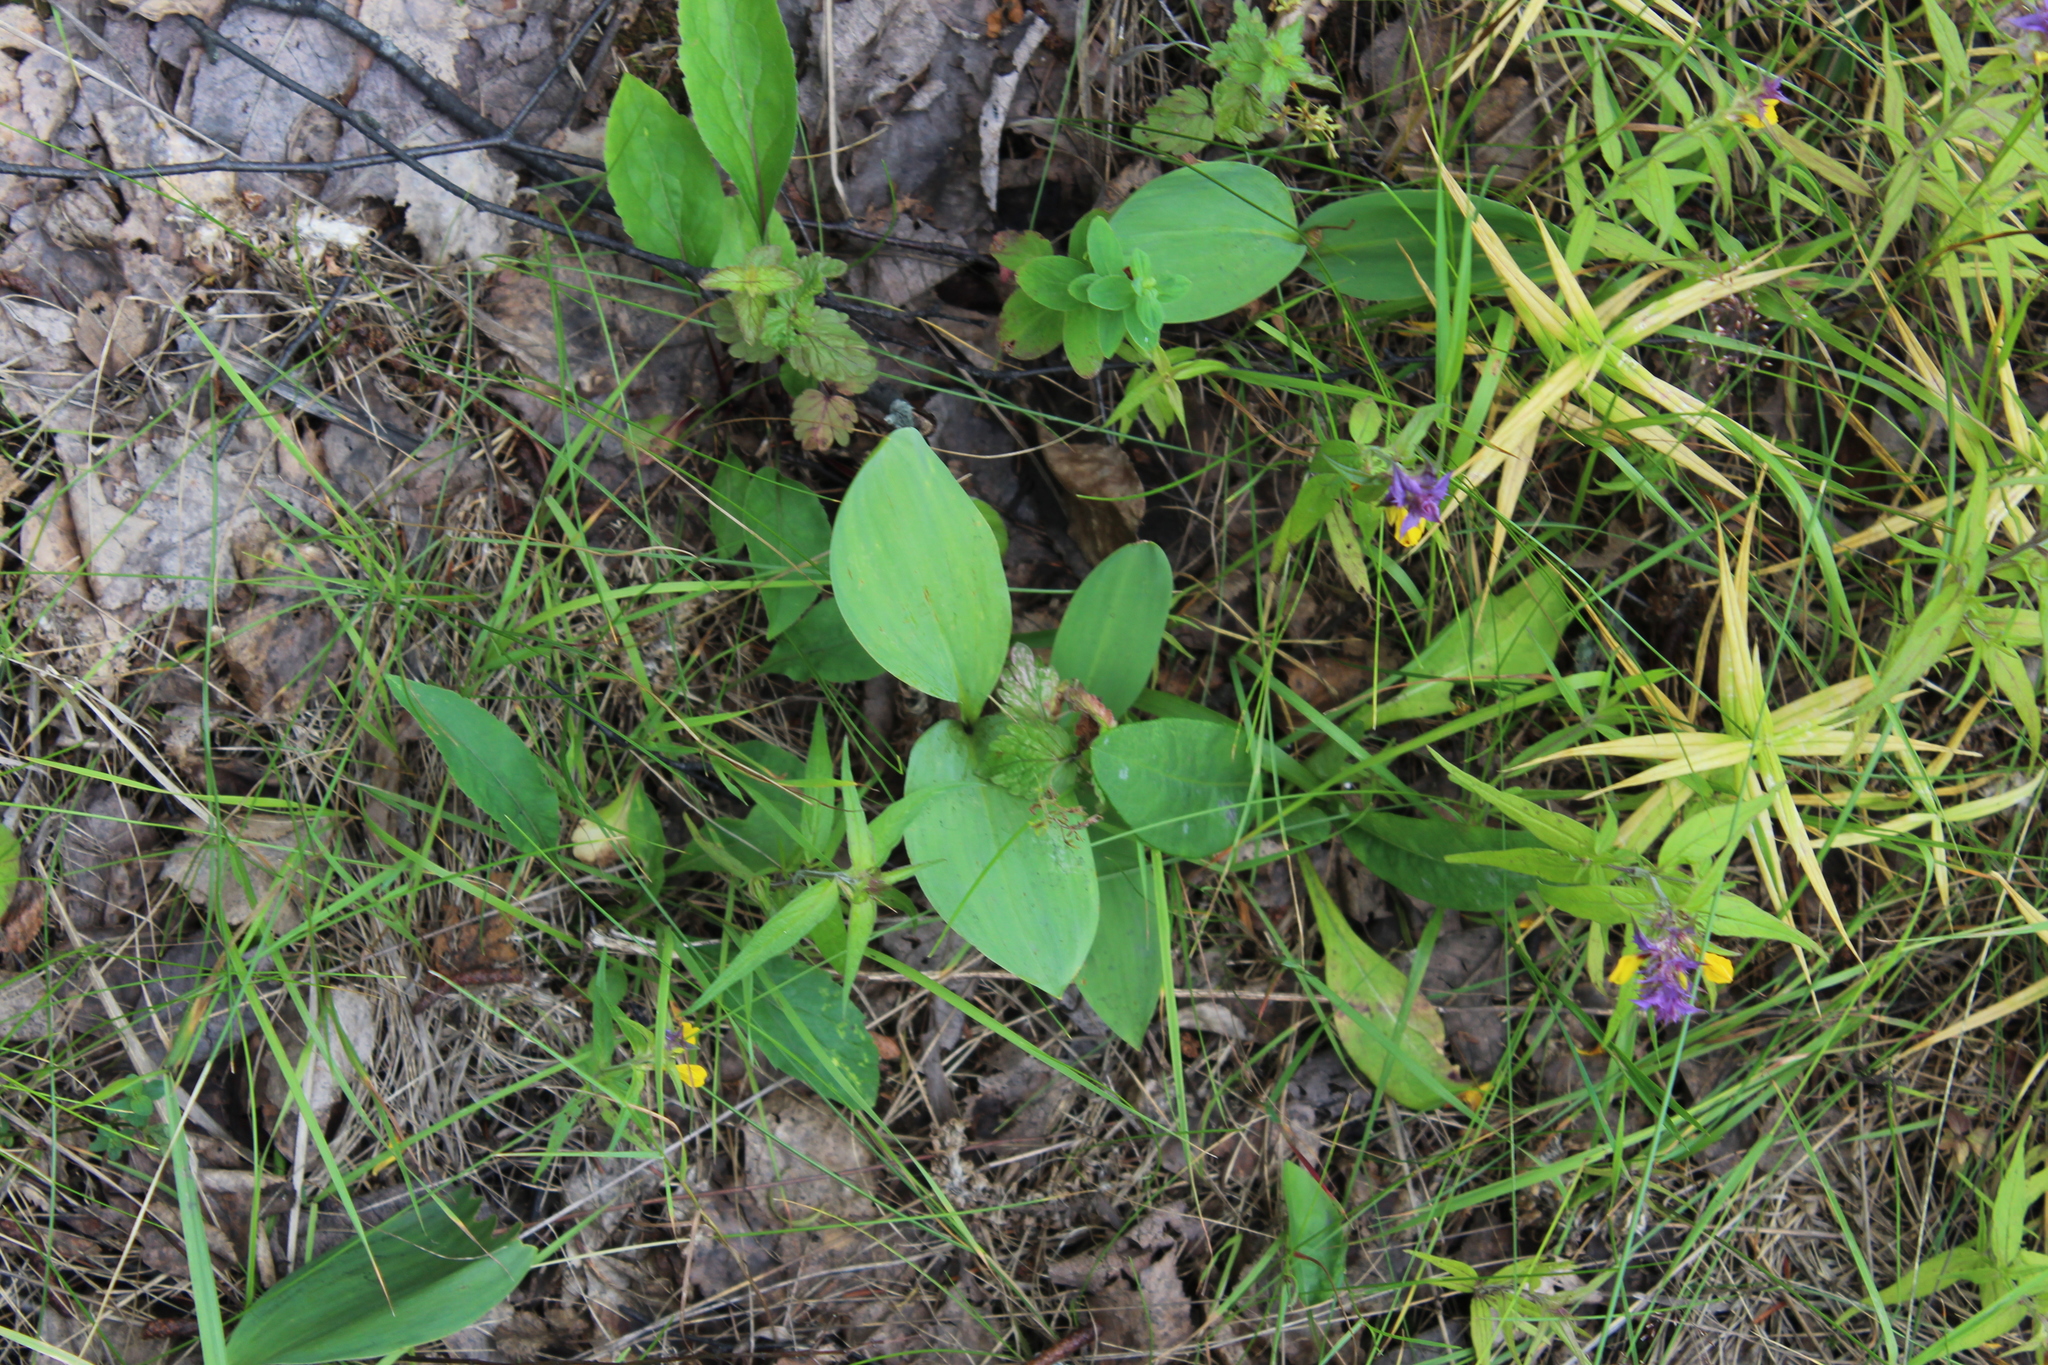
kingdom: Plantae
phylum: Tracheophyta
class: Liliopsida
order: Asparagales
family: Asparagaceae
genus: Convallaria
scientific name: Convallaria majalis
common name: Lily-of-the-valley
